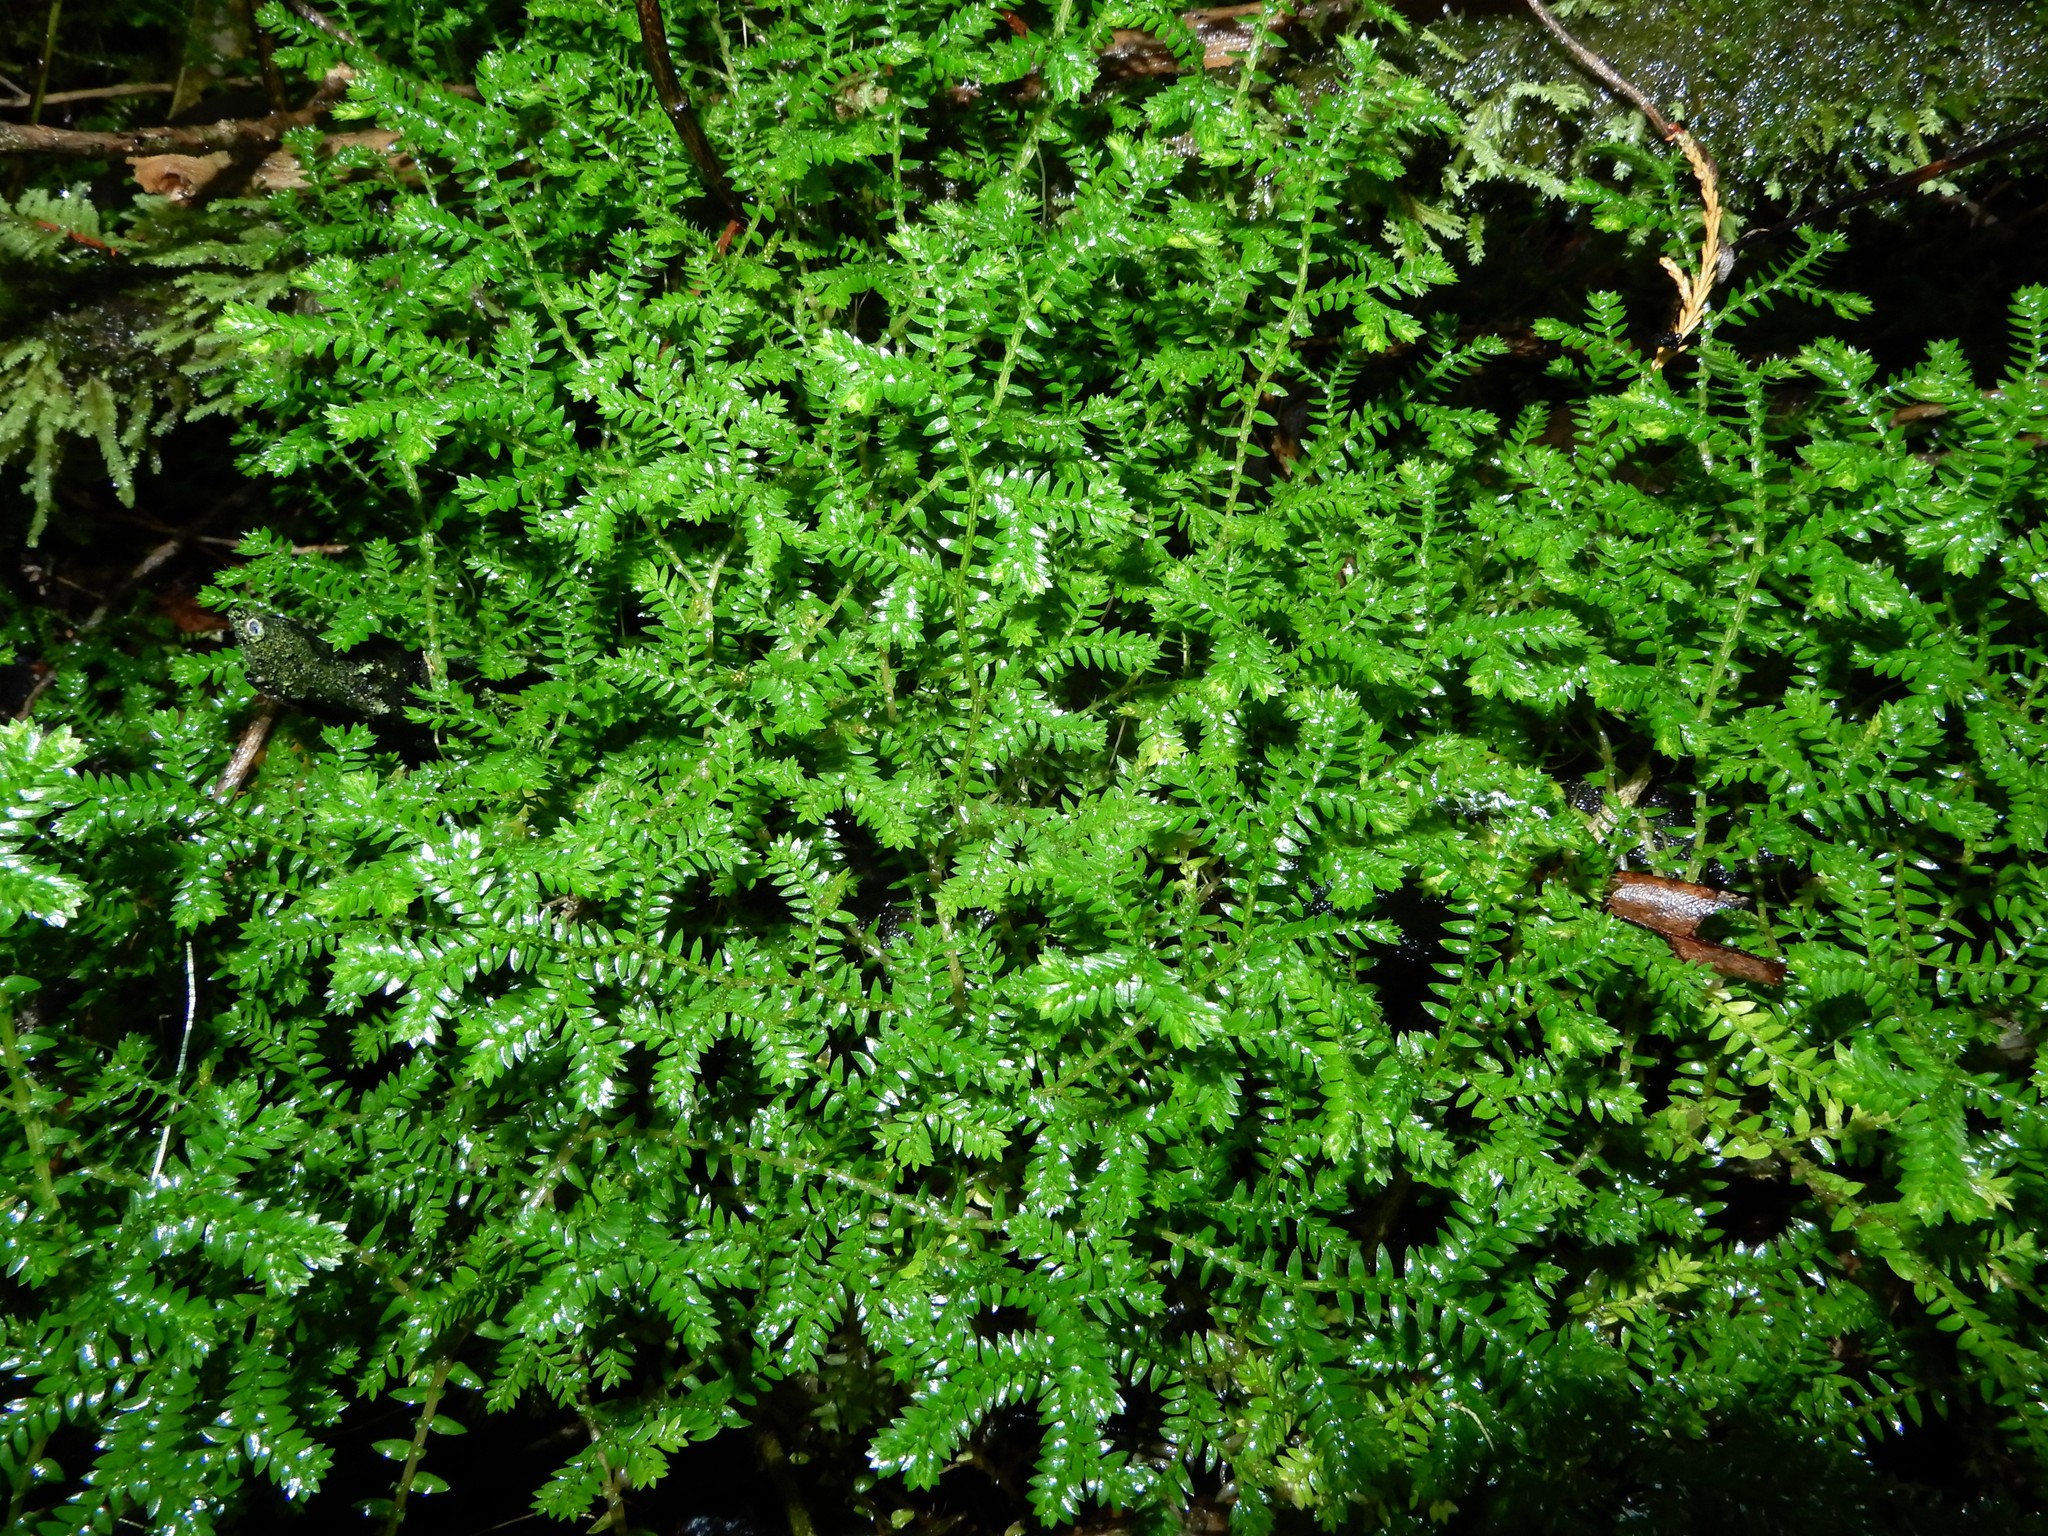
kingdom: Plantae
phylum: Tracheophyta
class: Lycopodiopsida
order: Selaginellales
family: Selaginellaceae
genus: Selaginella
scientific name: Selaginella kraussiana
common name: Krauss' spikemoss
